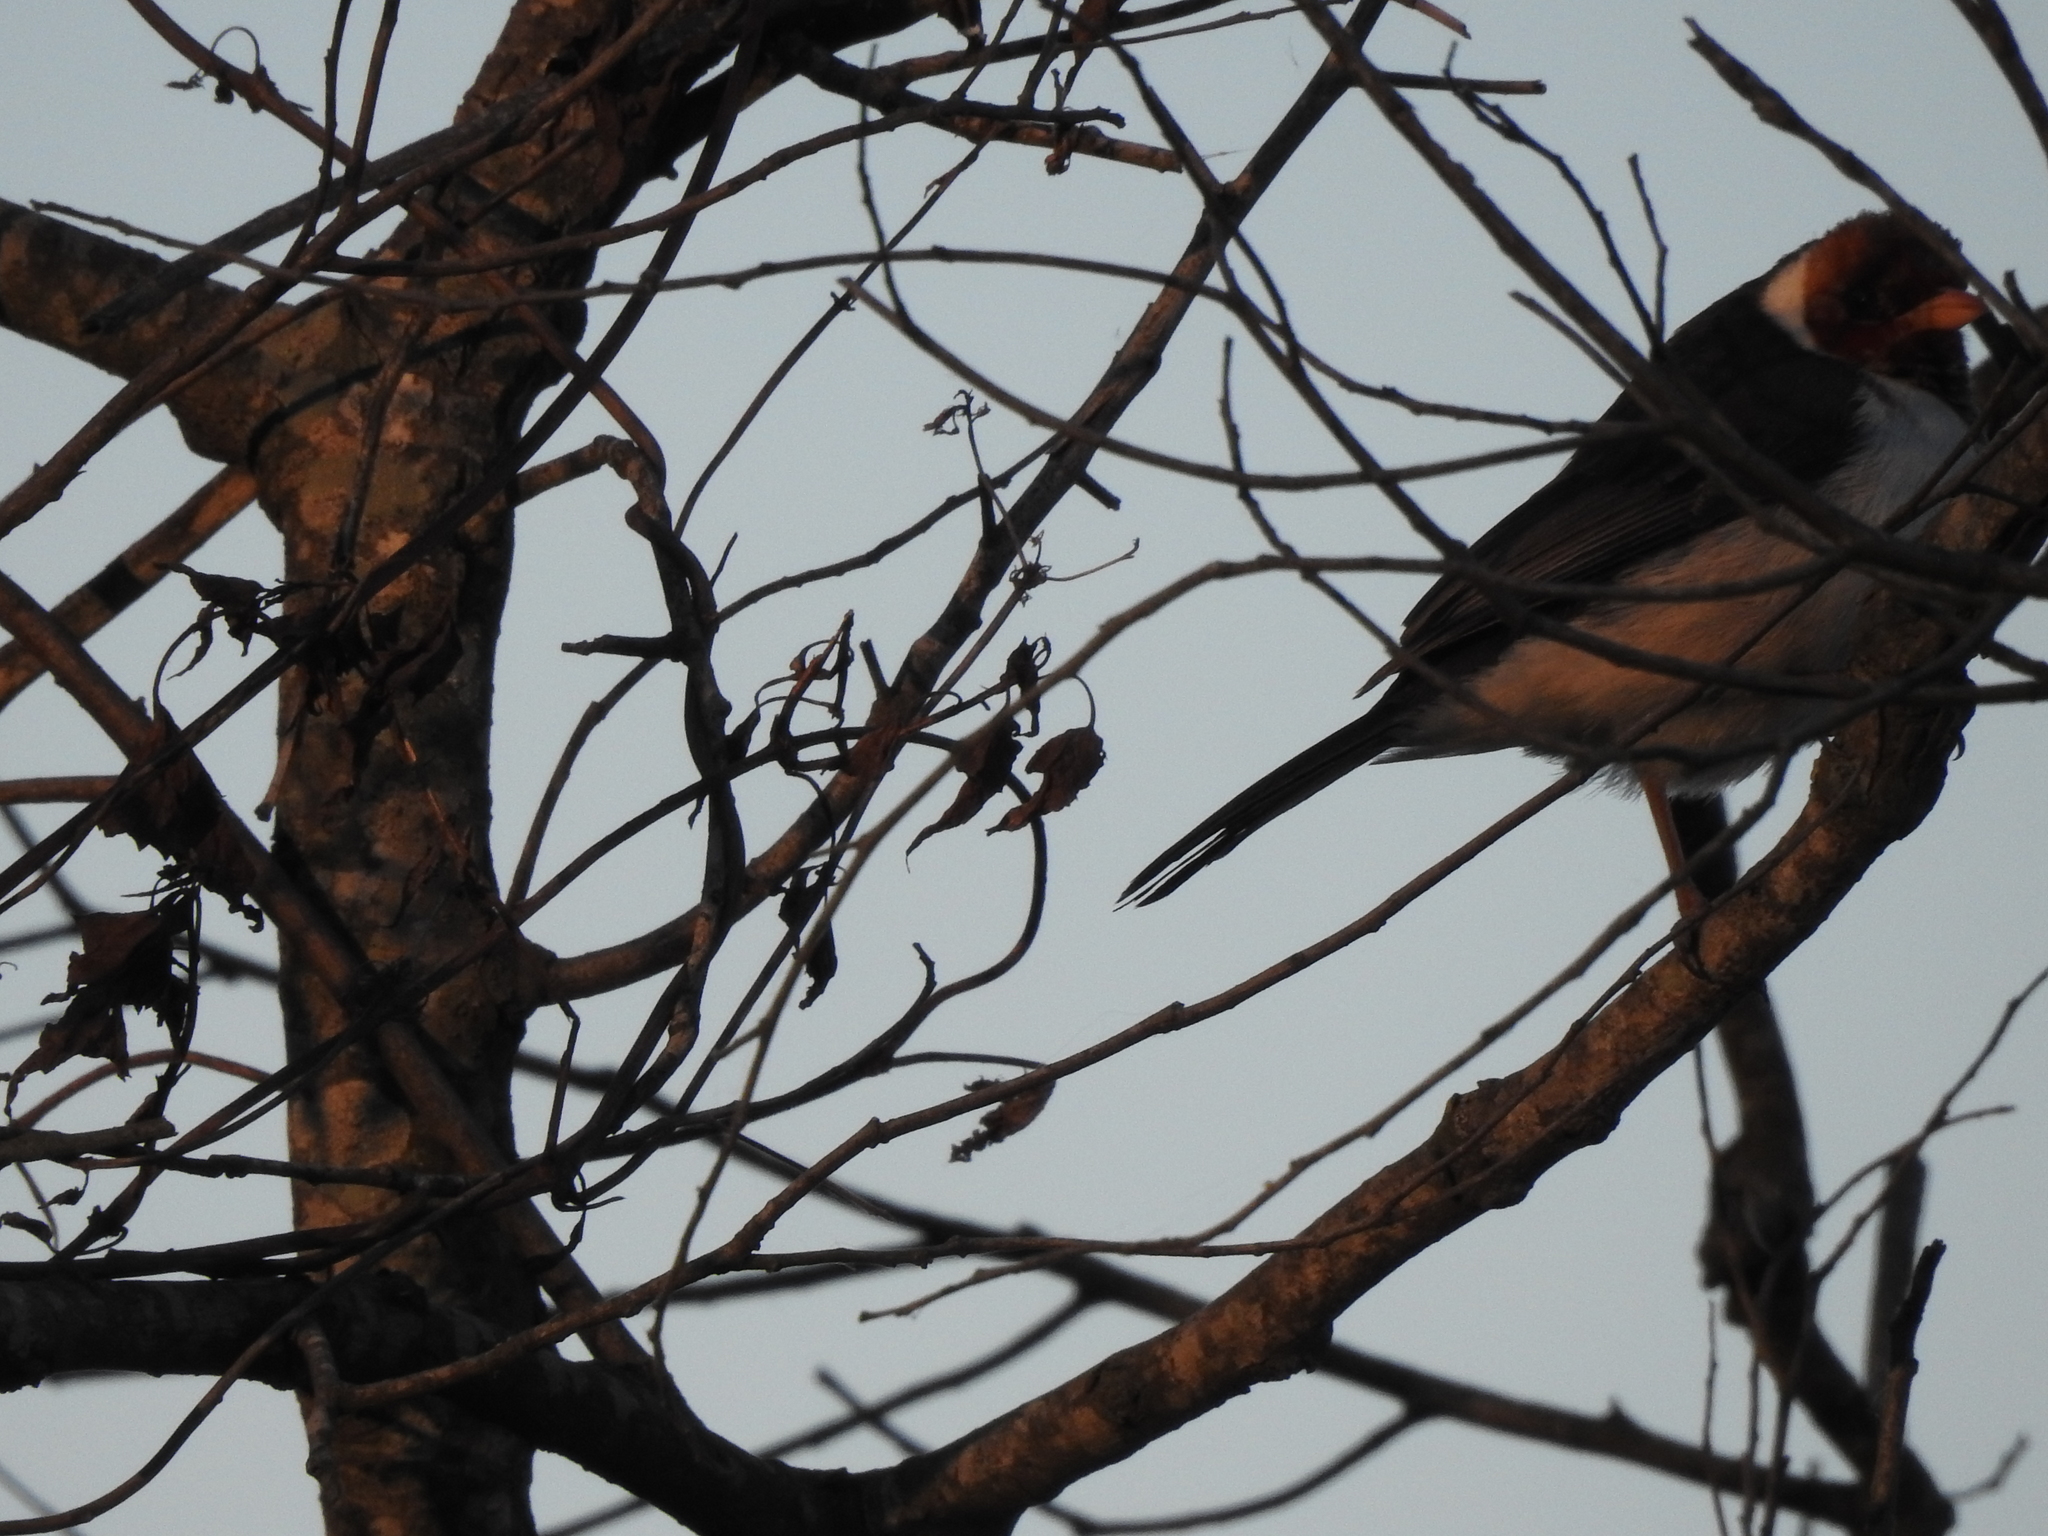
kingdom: Animalia
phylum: Chordata
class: Aves
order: Passeriformes
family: Thraupidae
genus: Paroaria
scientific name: Paroaria capitata
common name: Yellow-billed cardinal
